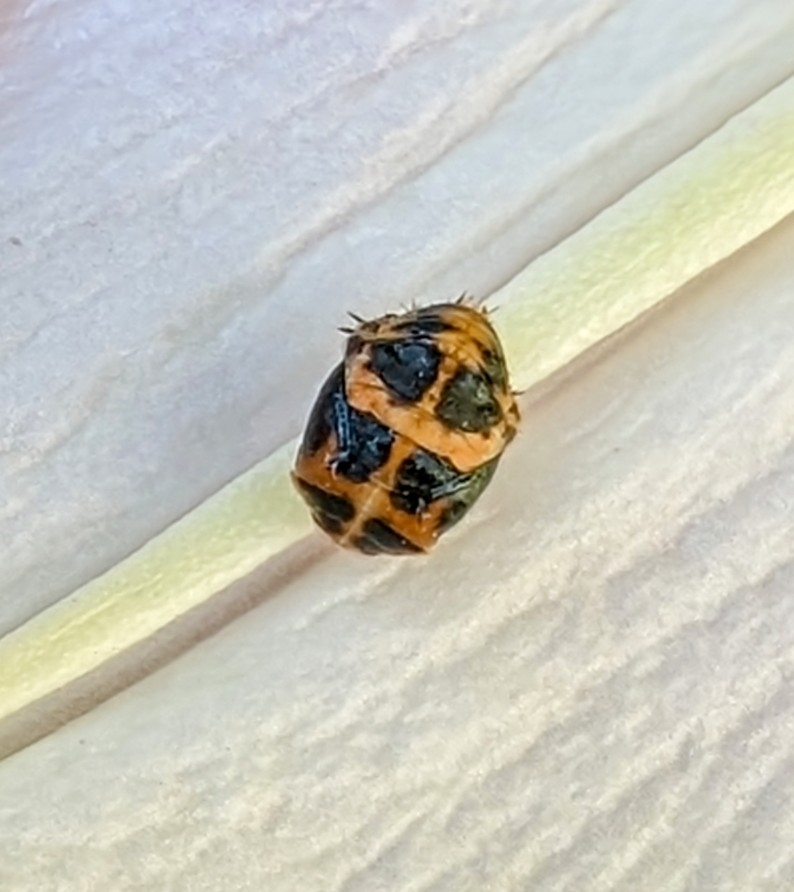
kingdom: Animalia
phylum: Arthropoda
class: Insecta
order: Coleoptera
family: Coccinellidae
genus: Harmonia
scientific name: Harmonia axyridis
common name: Harlequin ladybird
